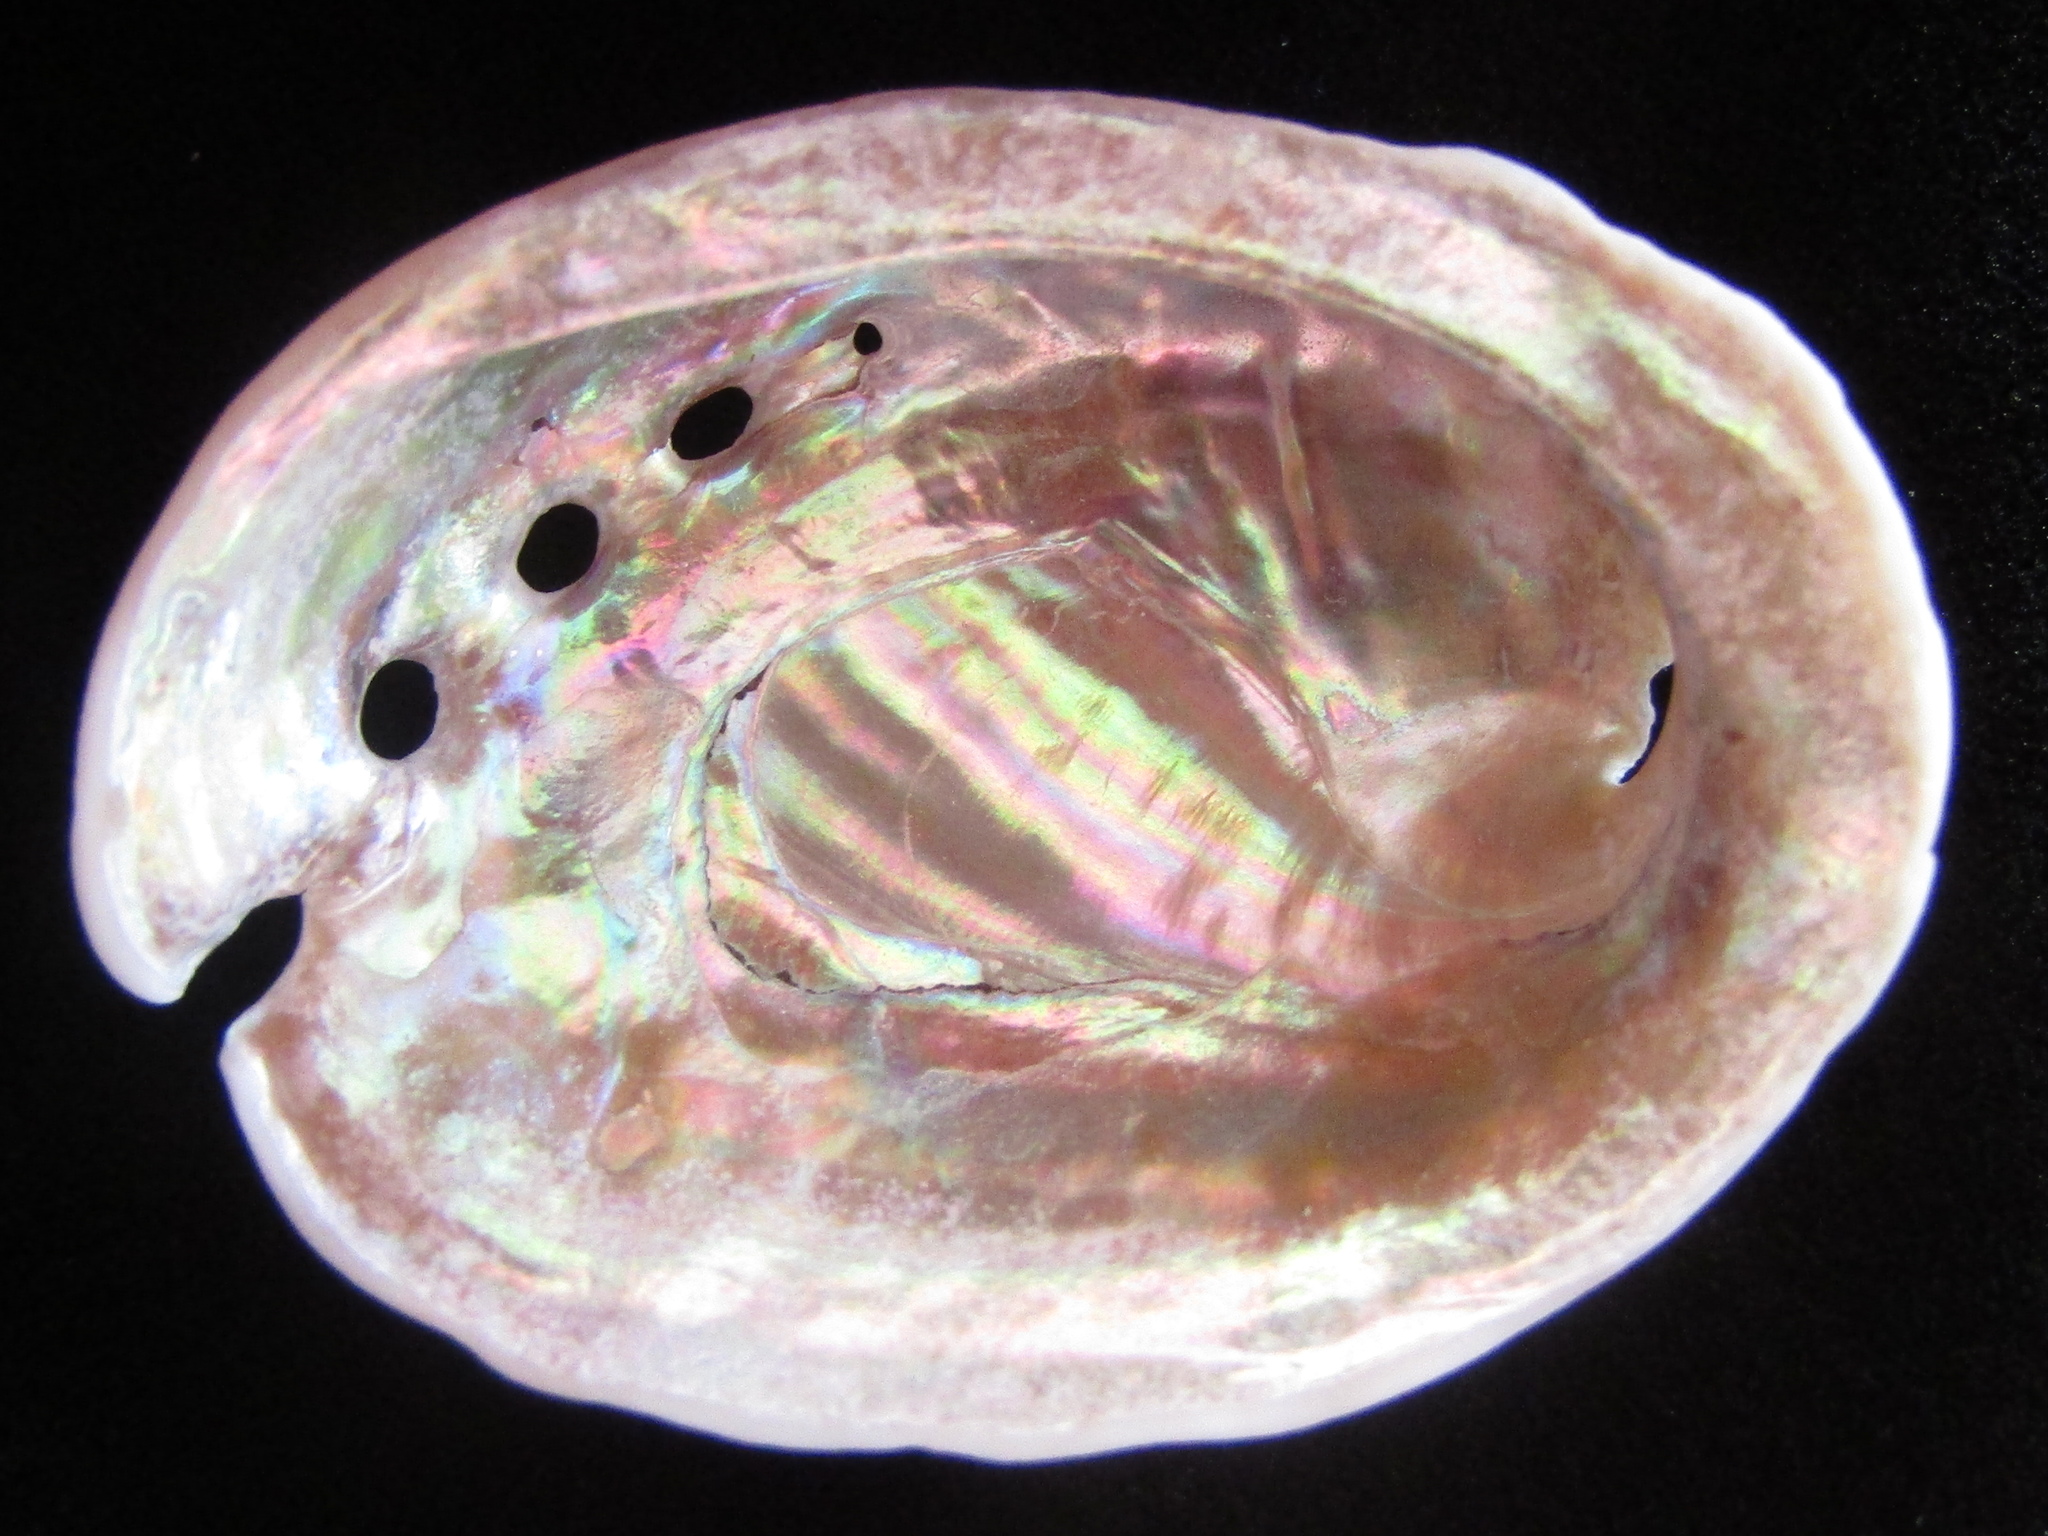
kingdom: Animalia
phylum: Mollusca
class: Gastropoda
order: Lepetellida
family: Haliotidae
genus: Haliotis
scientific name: Haliotis iris
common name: Abalone
